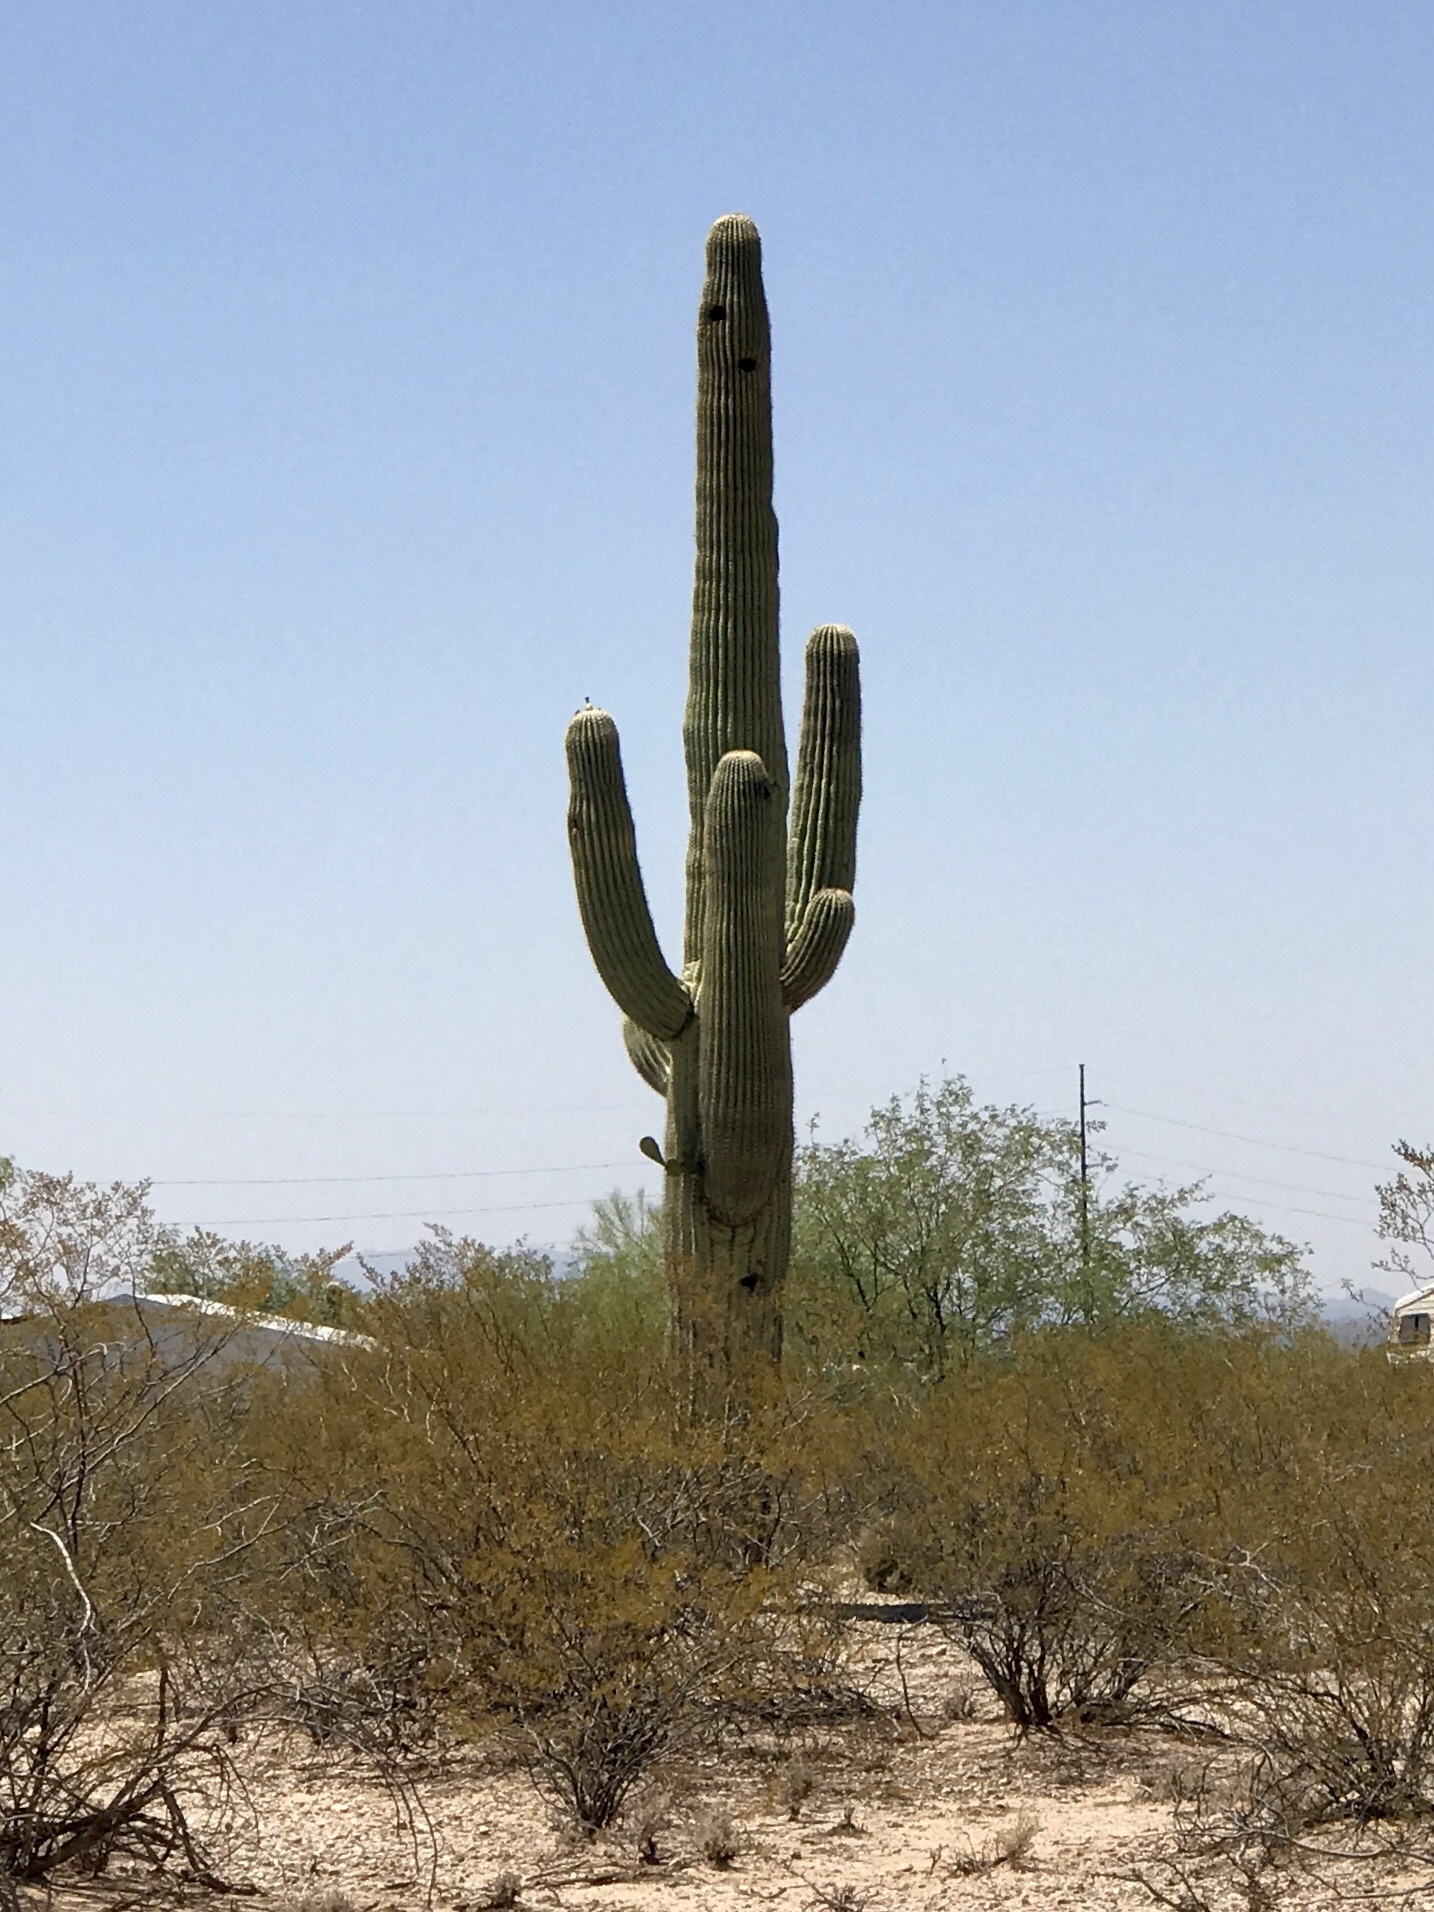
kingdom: Plantae
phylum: Tracheophyta
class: Magnoliopsida
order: Caryophyllales
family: Cactaceae
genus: Carnegiea
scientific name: Carnegiea gigantea
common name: Saguaro
